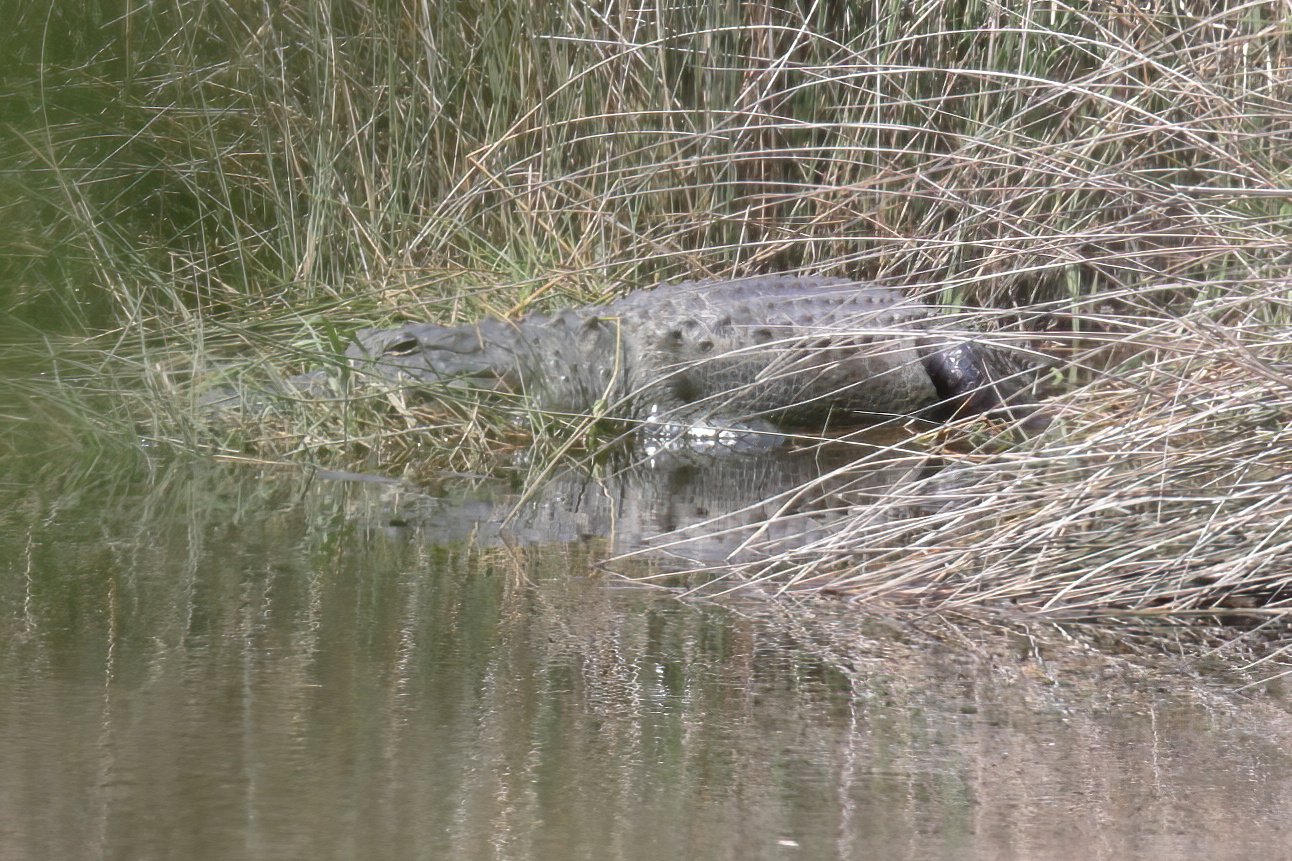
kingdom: Animalia
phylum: Chordata
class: Crocodylia
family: Alligatoridae
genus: Alligator
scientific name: Alligator mississippiensis
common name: American alligator
